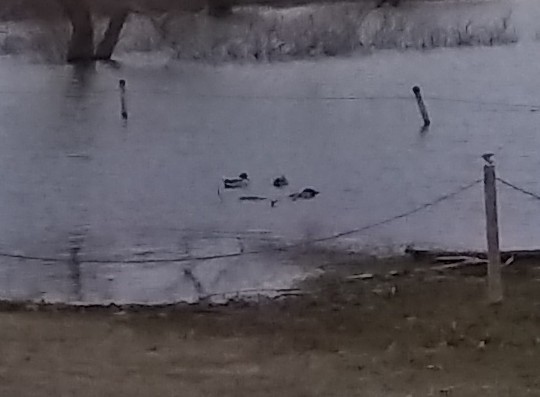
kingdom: Animalia
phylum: Chordata
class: Aves
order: Anseriformes
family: Anatidae
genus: Anas
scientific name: Anas platyrhynchos
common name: Mallard
